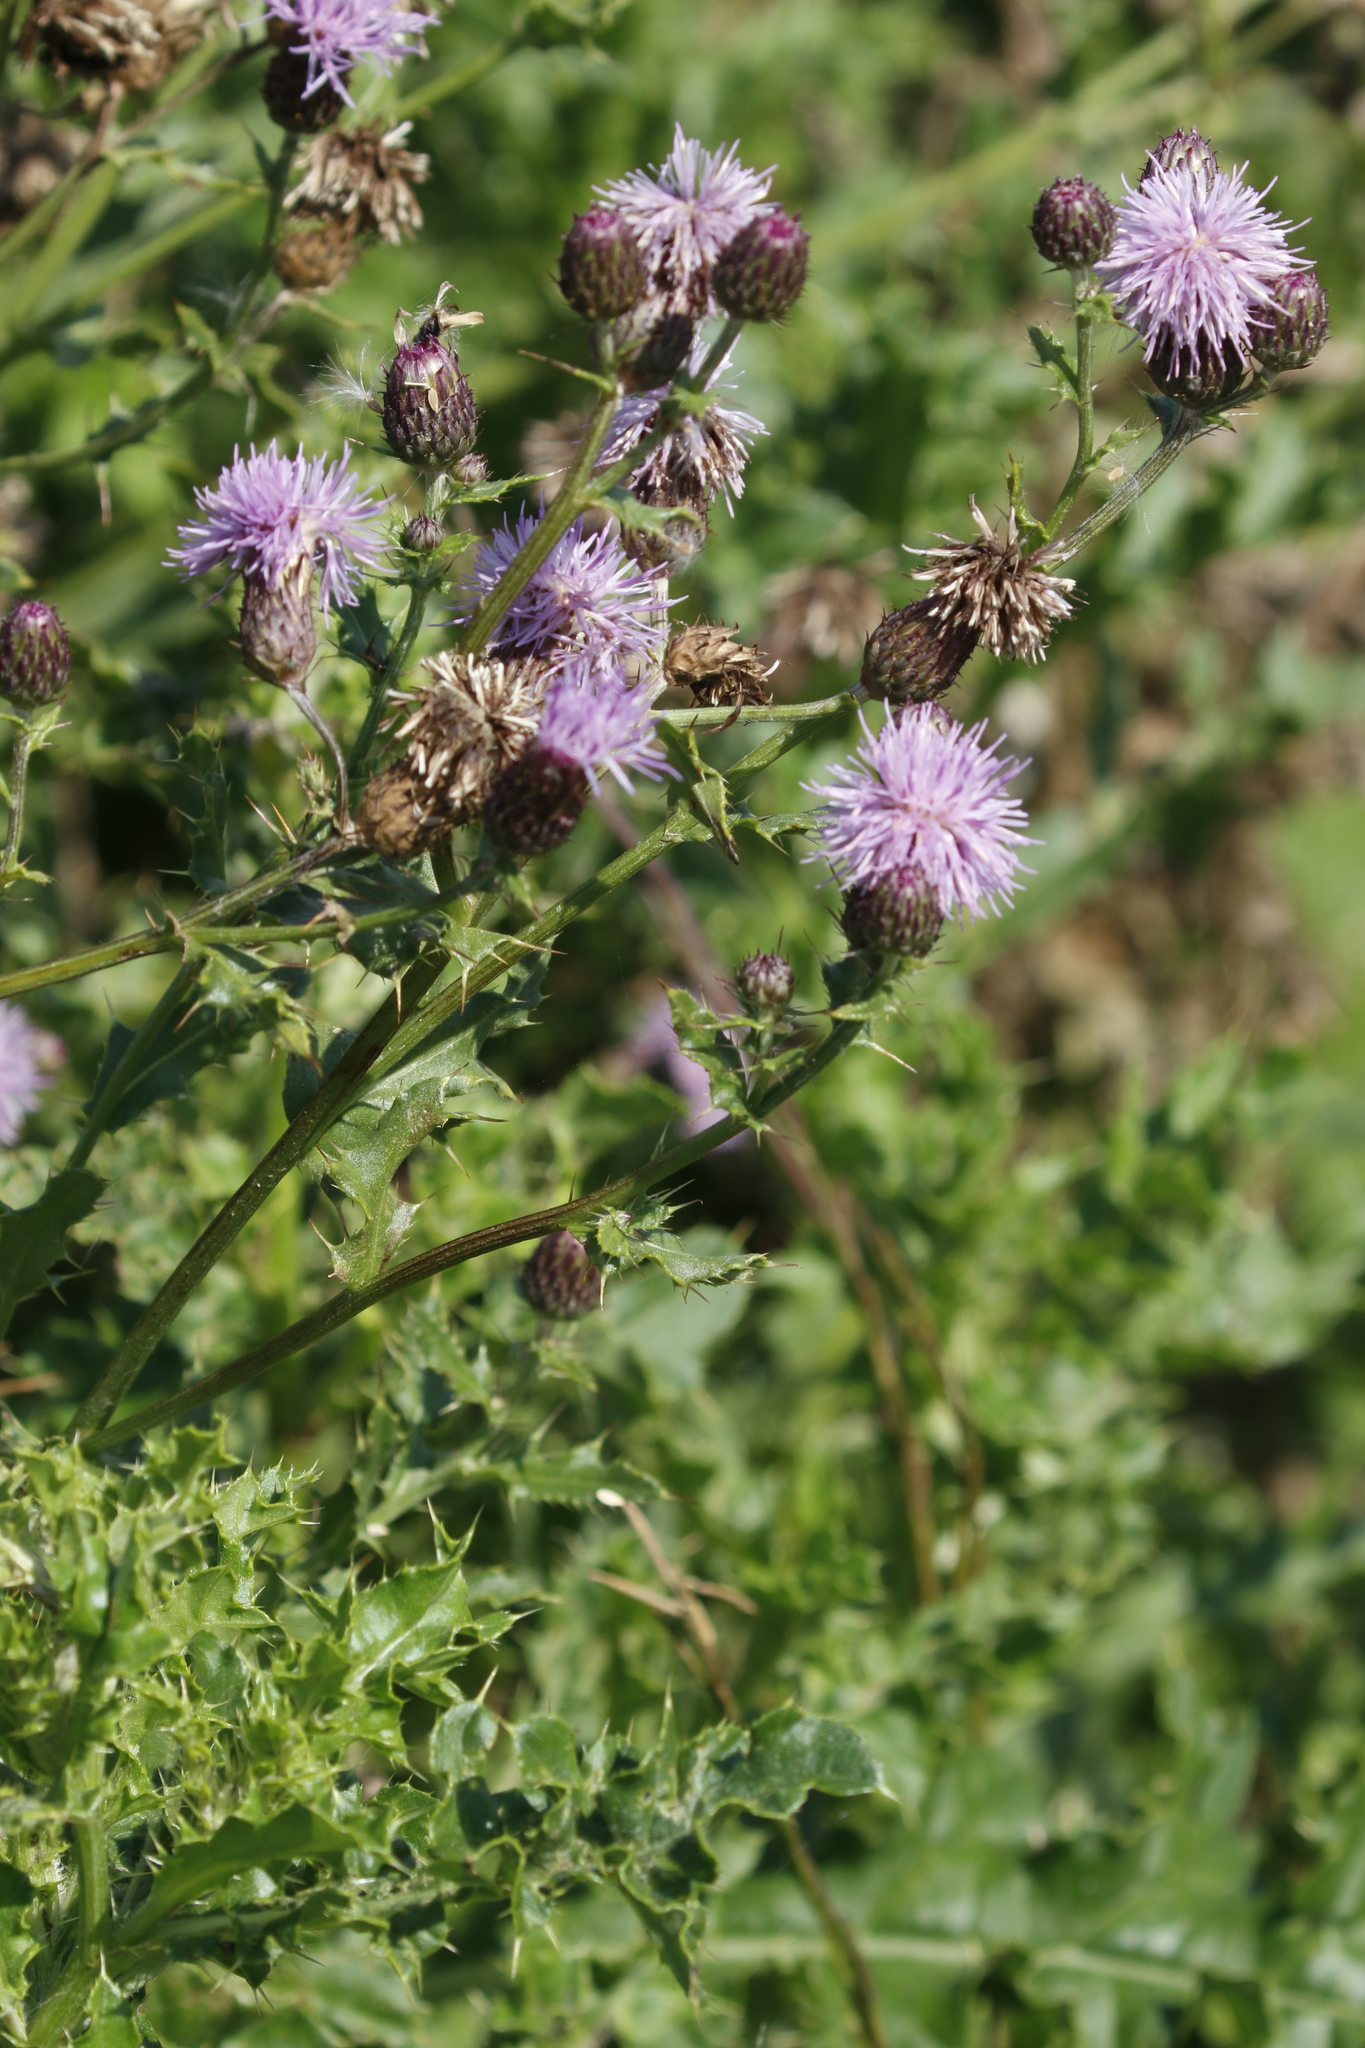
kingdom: Plantae
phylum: Tracheophyta
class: Magnoliopsida
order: Asterales
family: Asteraceae
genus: Cirsium
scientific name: Cirsium arvense
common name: Creeping thistle
